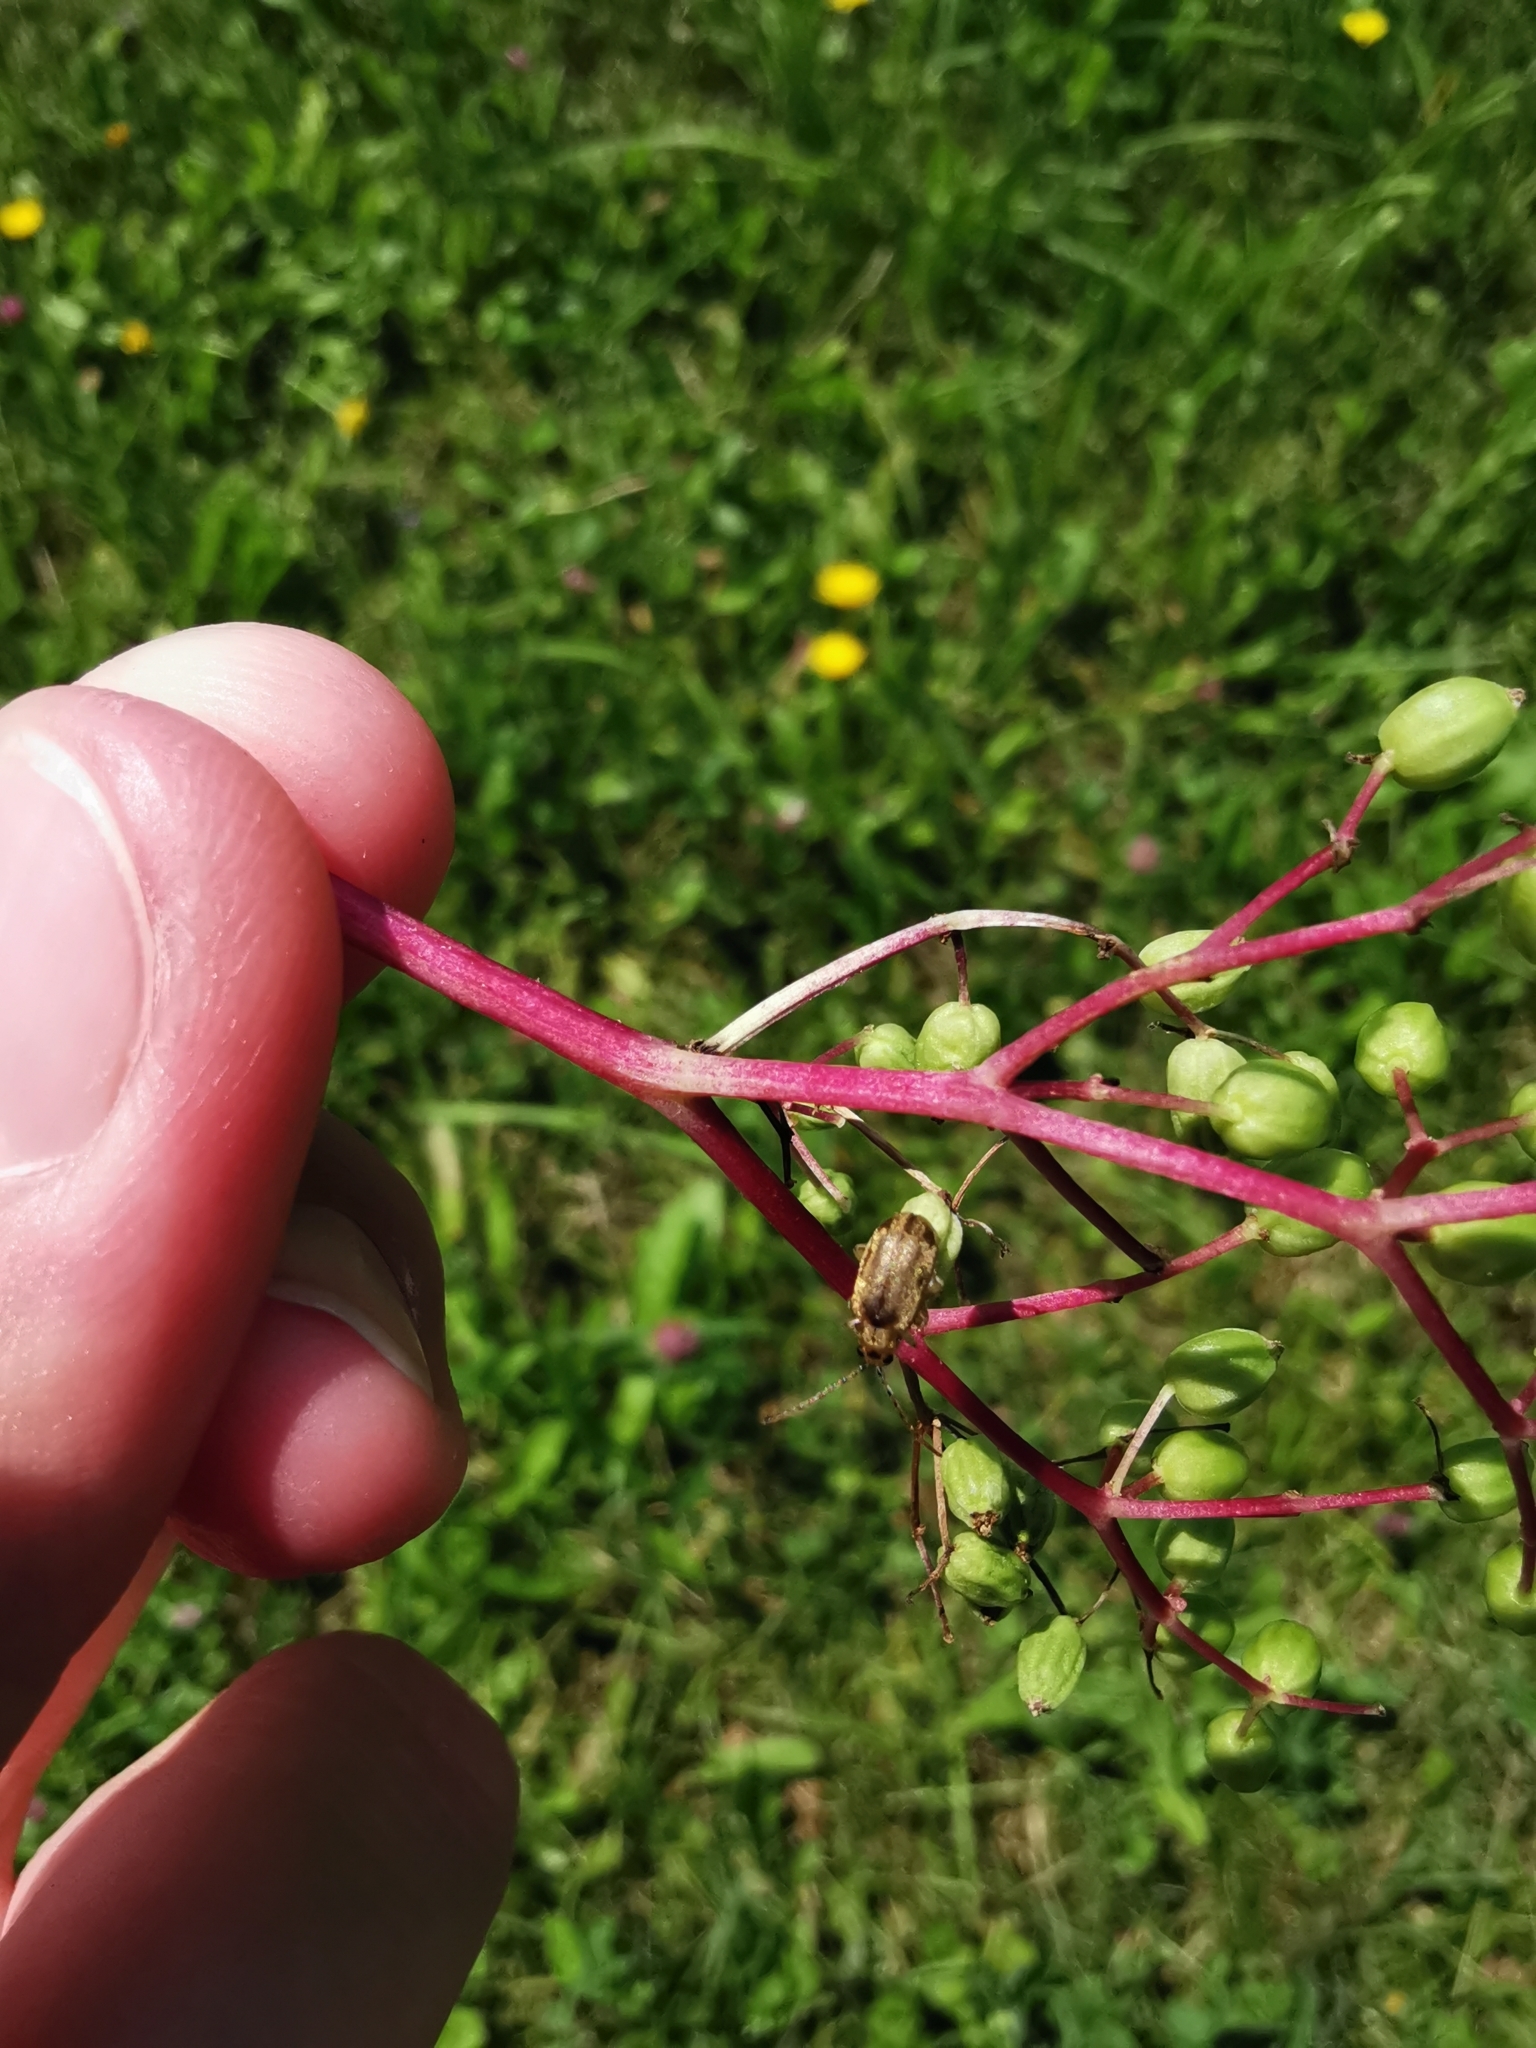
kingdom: Animalia
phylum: Arthropoda
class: Insecta
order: Coleoptera
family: Chrysomelidae
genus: Pyrrhalta
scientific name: Pyrrhalta viburni
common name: Guelder-rose leaf beetle
